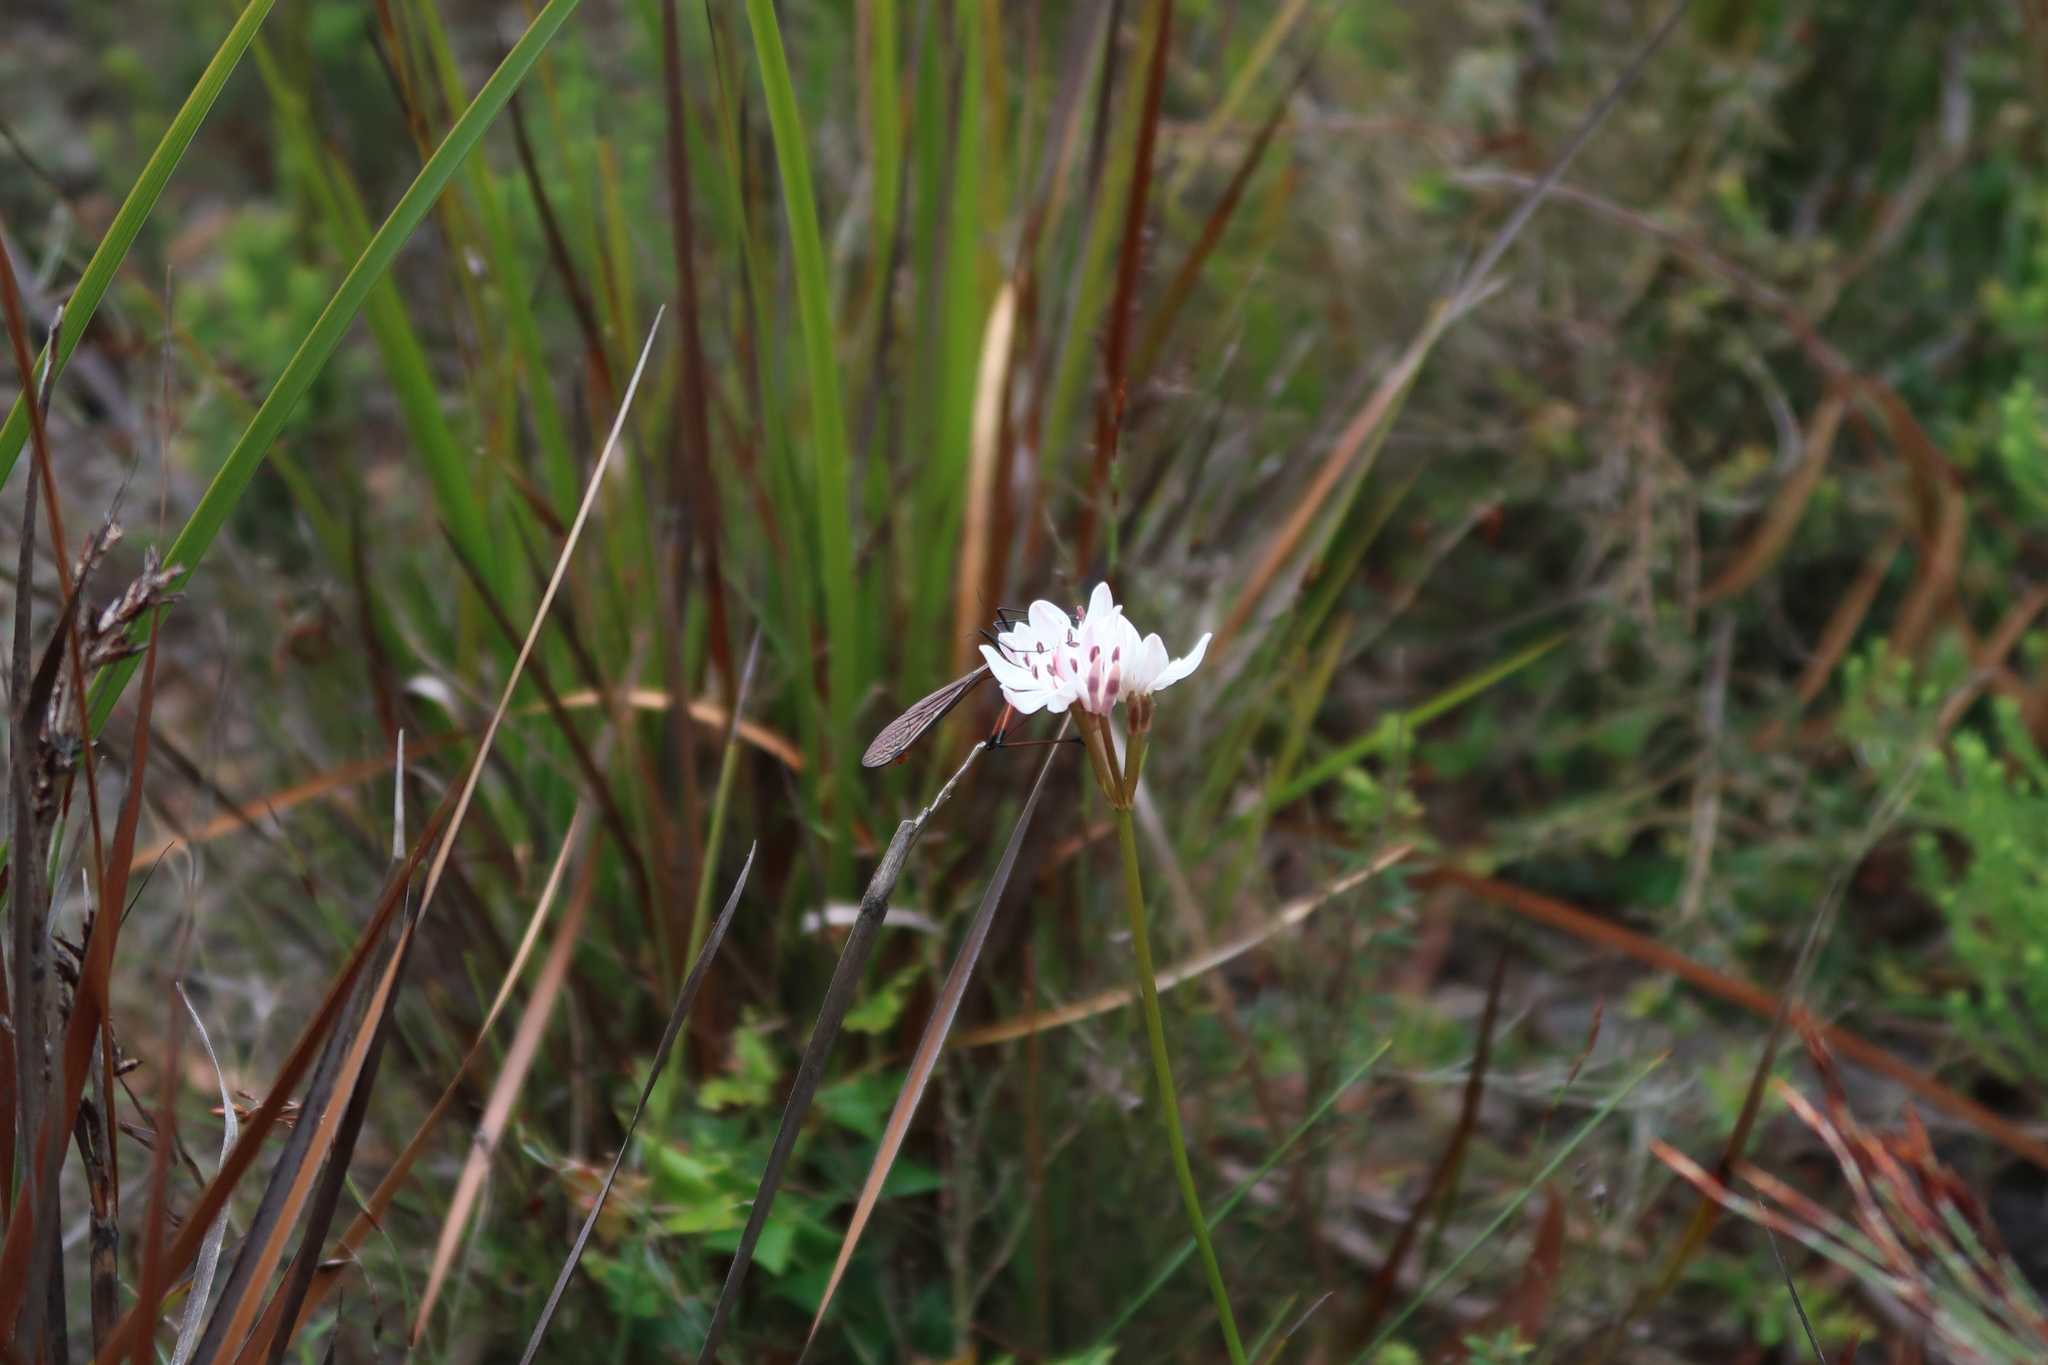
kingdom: Animalia
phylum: Arthropoda
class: Insecta
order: Mecoptera
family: Bittacidae
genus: Harpobittacus
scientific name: Harpobittacus australis
